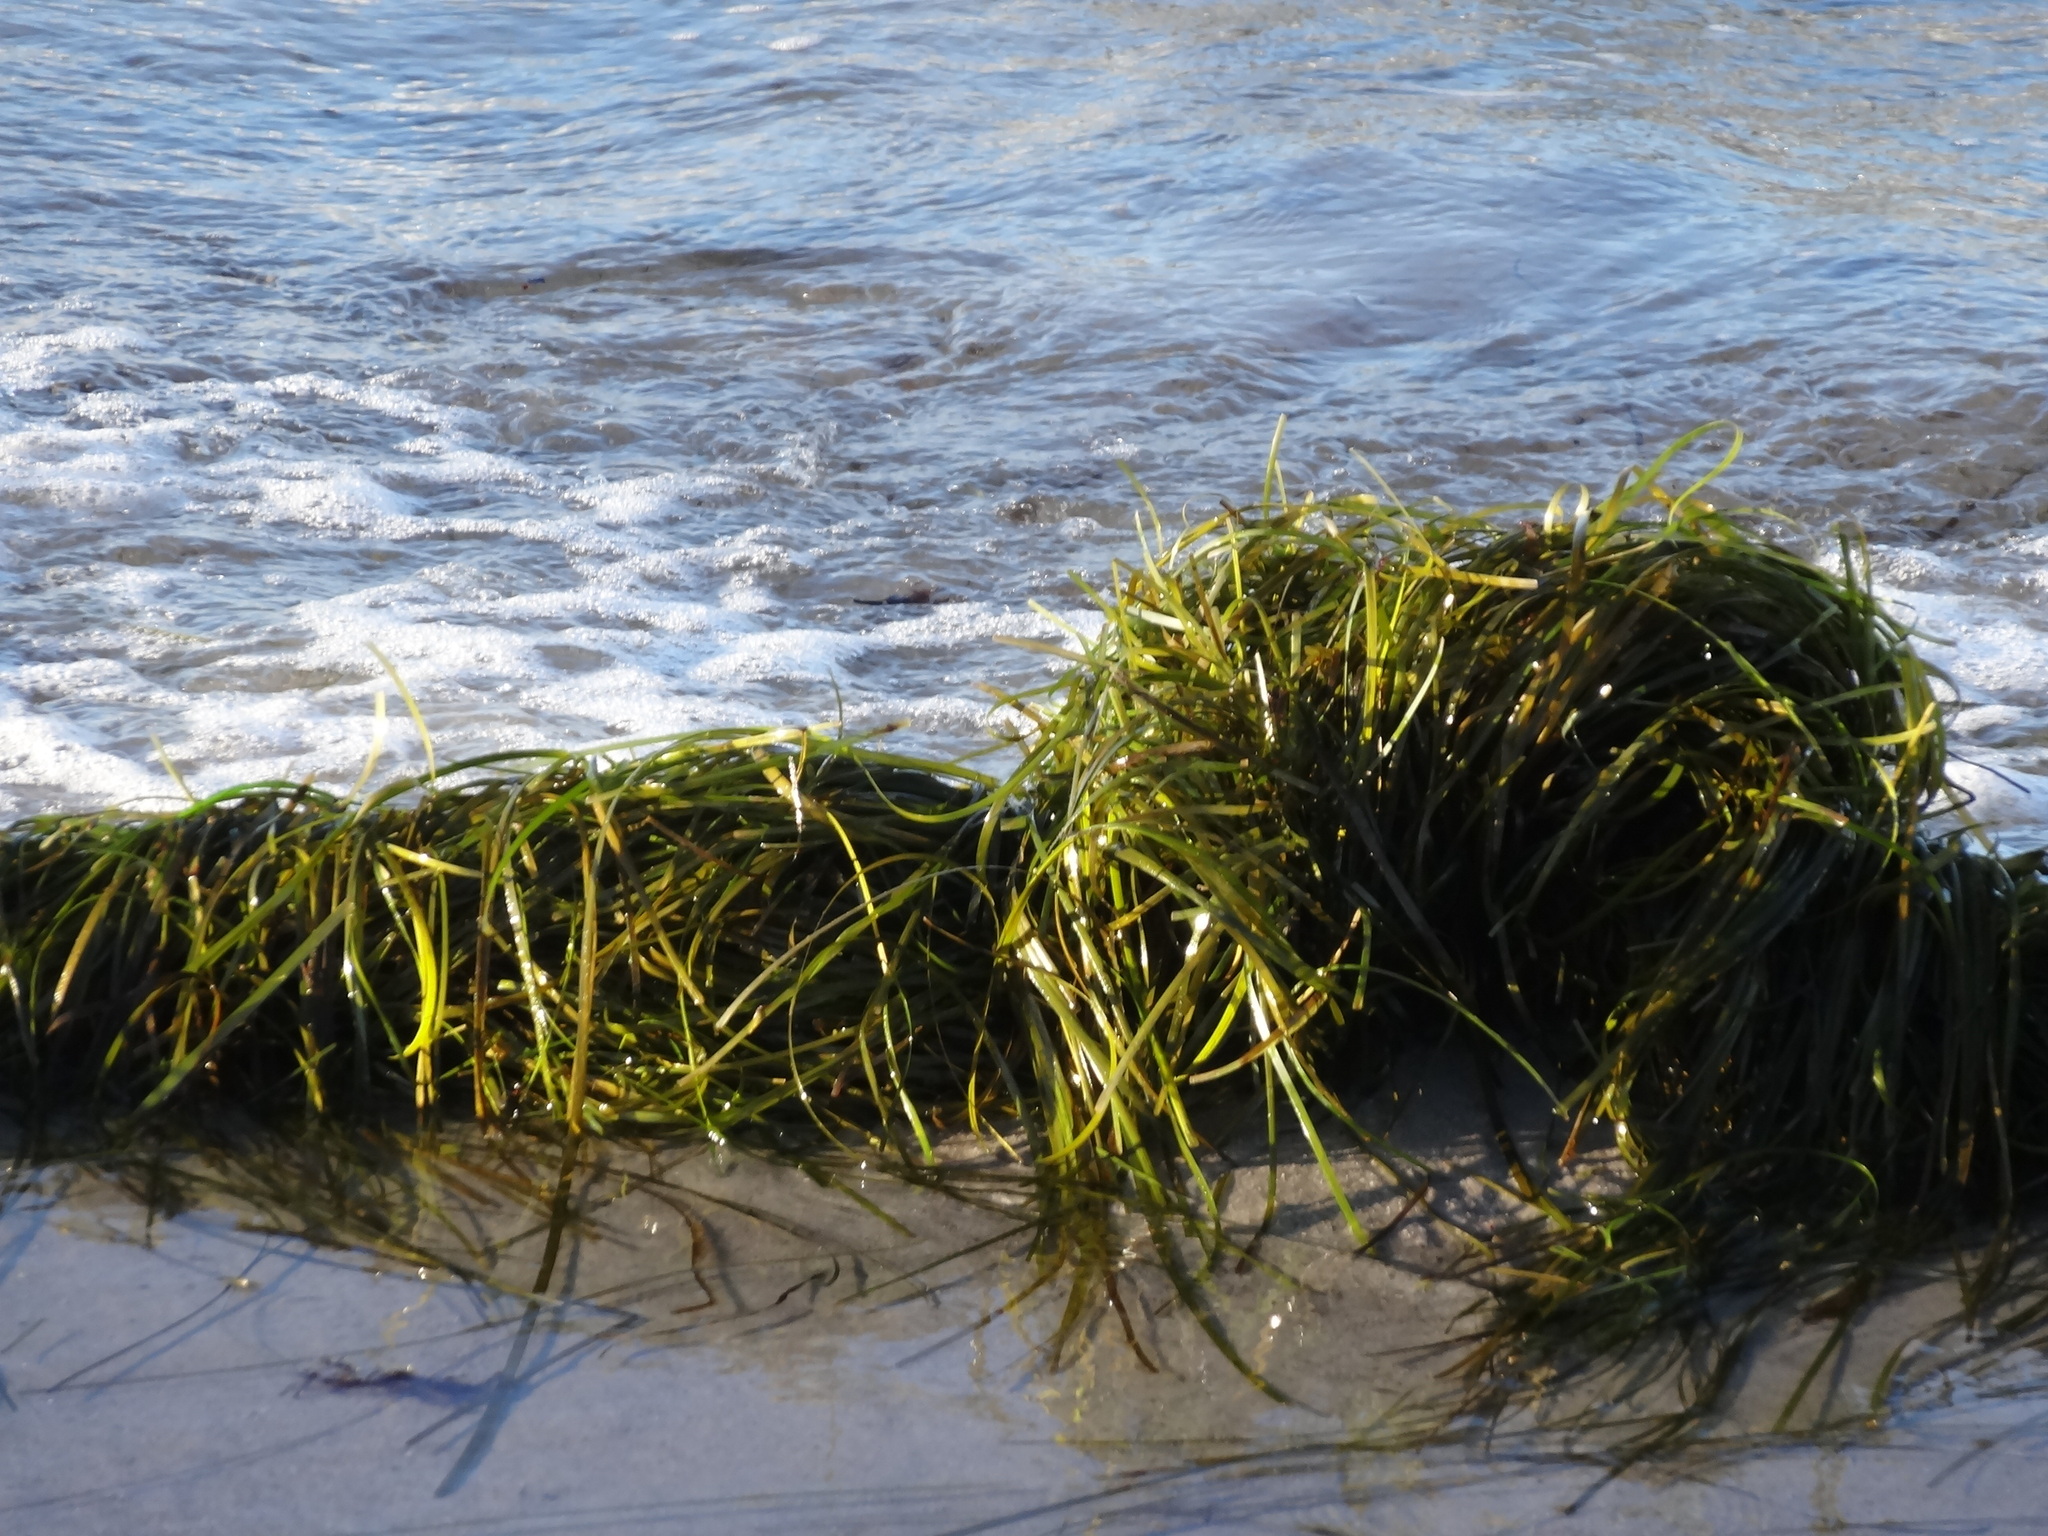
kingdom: Plantae
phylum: Tracheophyta
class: Liliopsida
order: Alismatales
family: Zosteraceae
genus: Zostera
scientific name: Zostera marina
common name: Eelgrass
